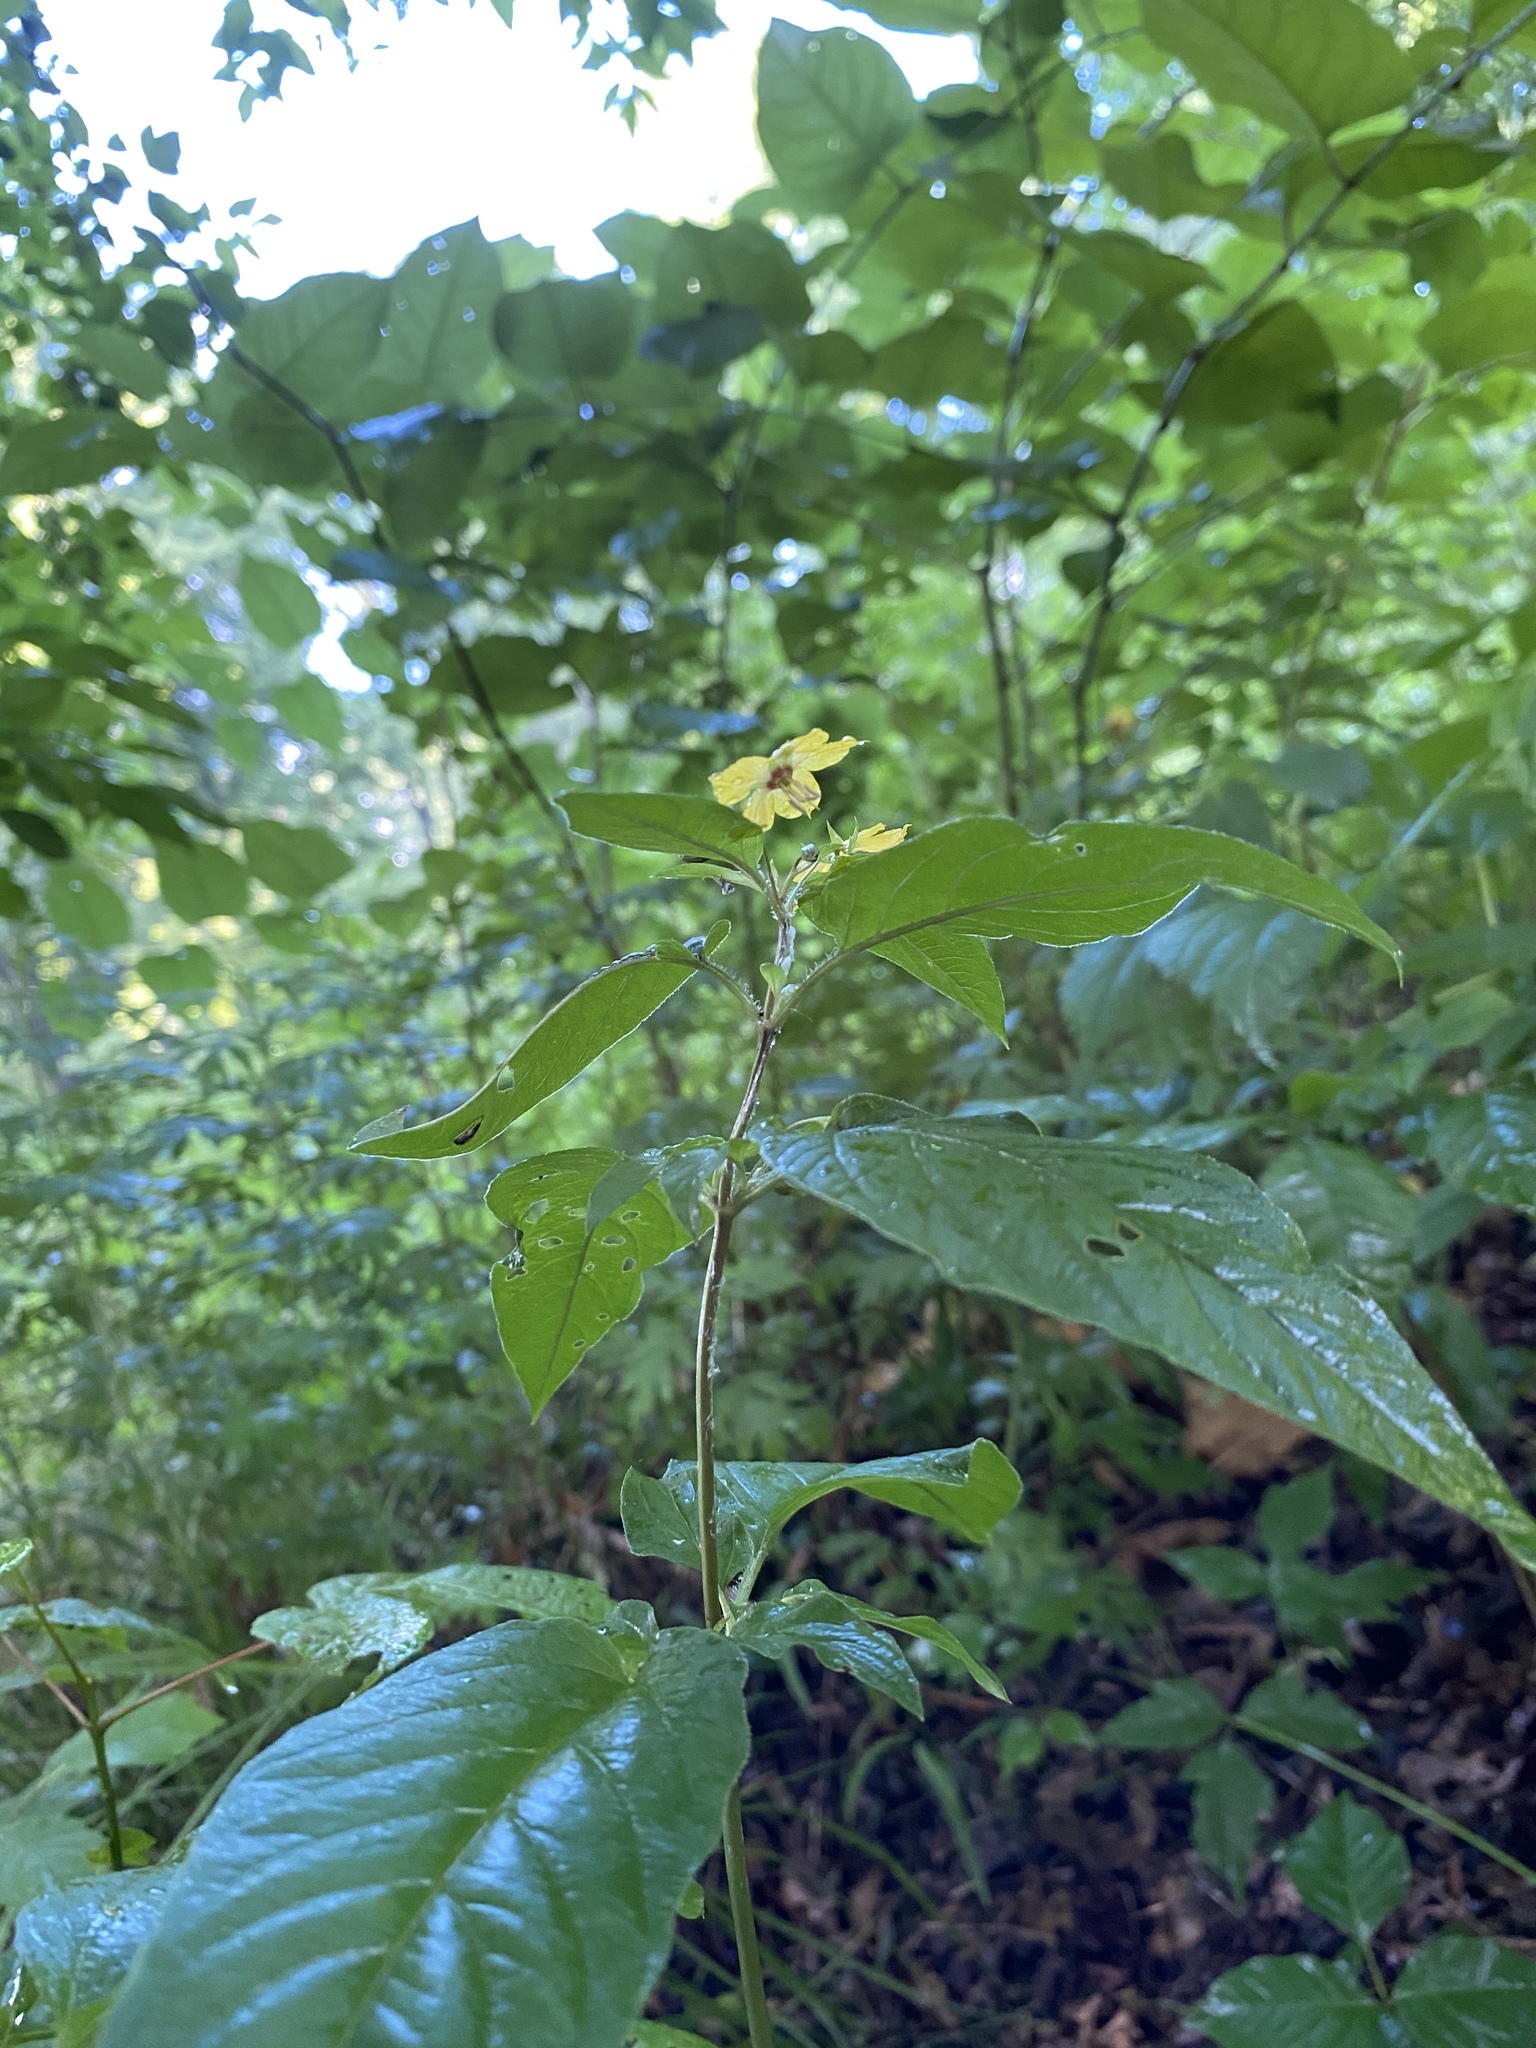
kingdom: Plantae
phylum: Tracheophyta
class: Magnoliopsida
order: Ericales
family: Primulaceae
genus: Lysimachia
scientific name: Lysimachia ciliata
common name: Fringed loosestrife
